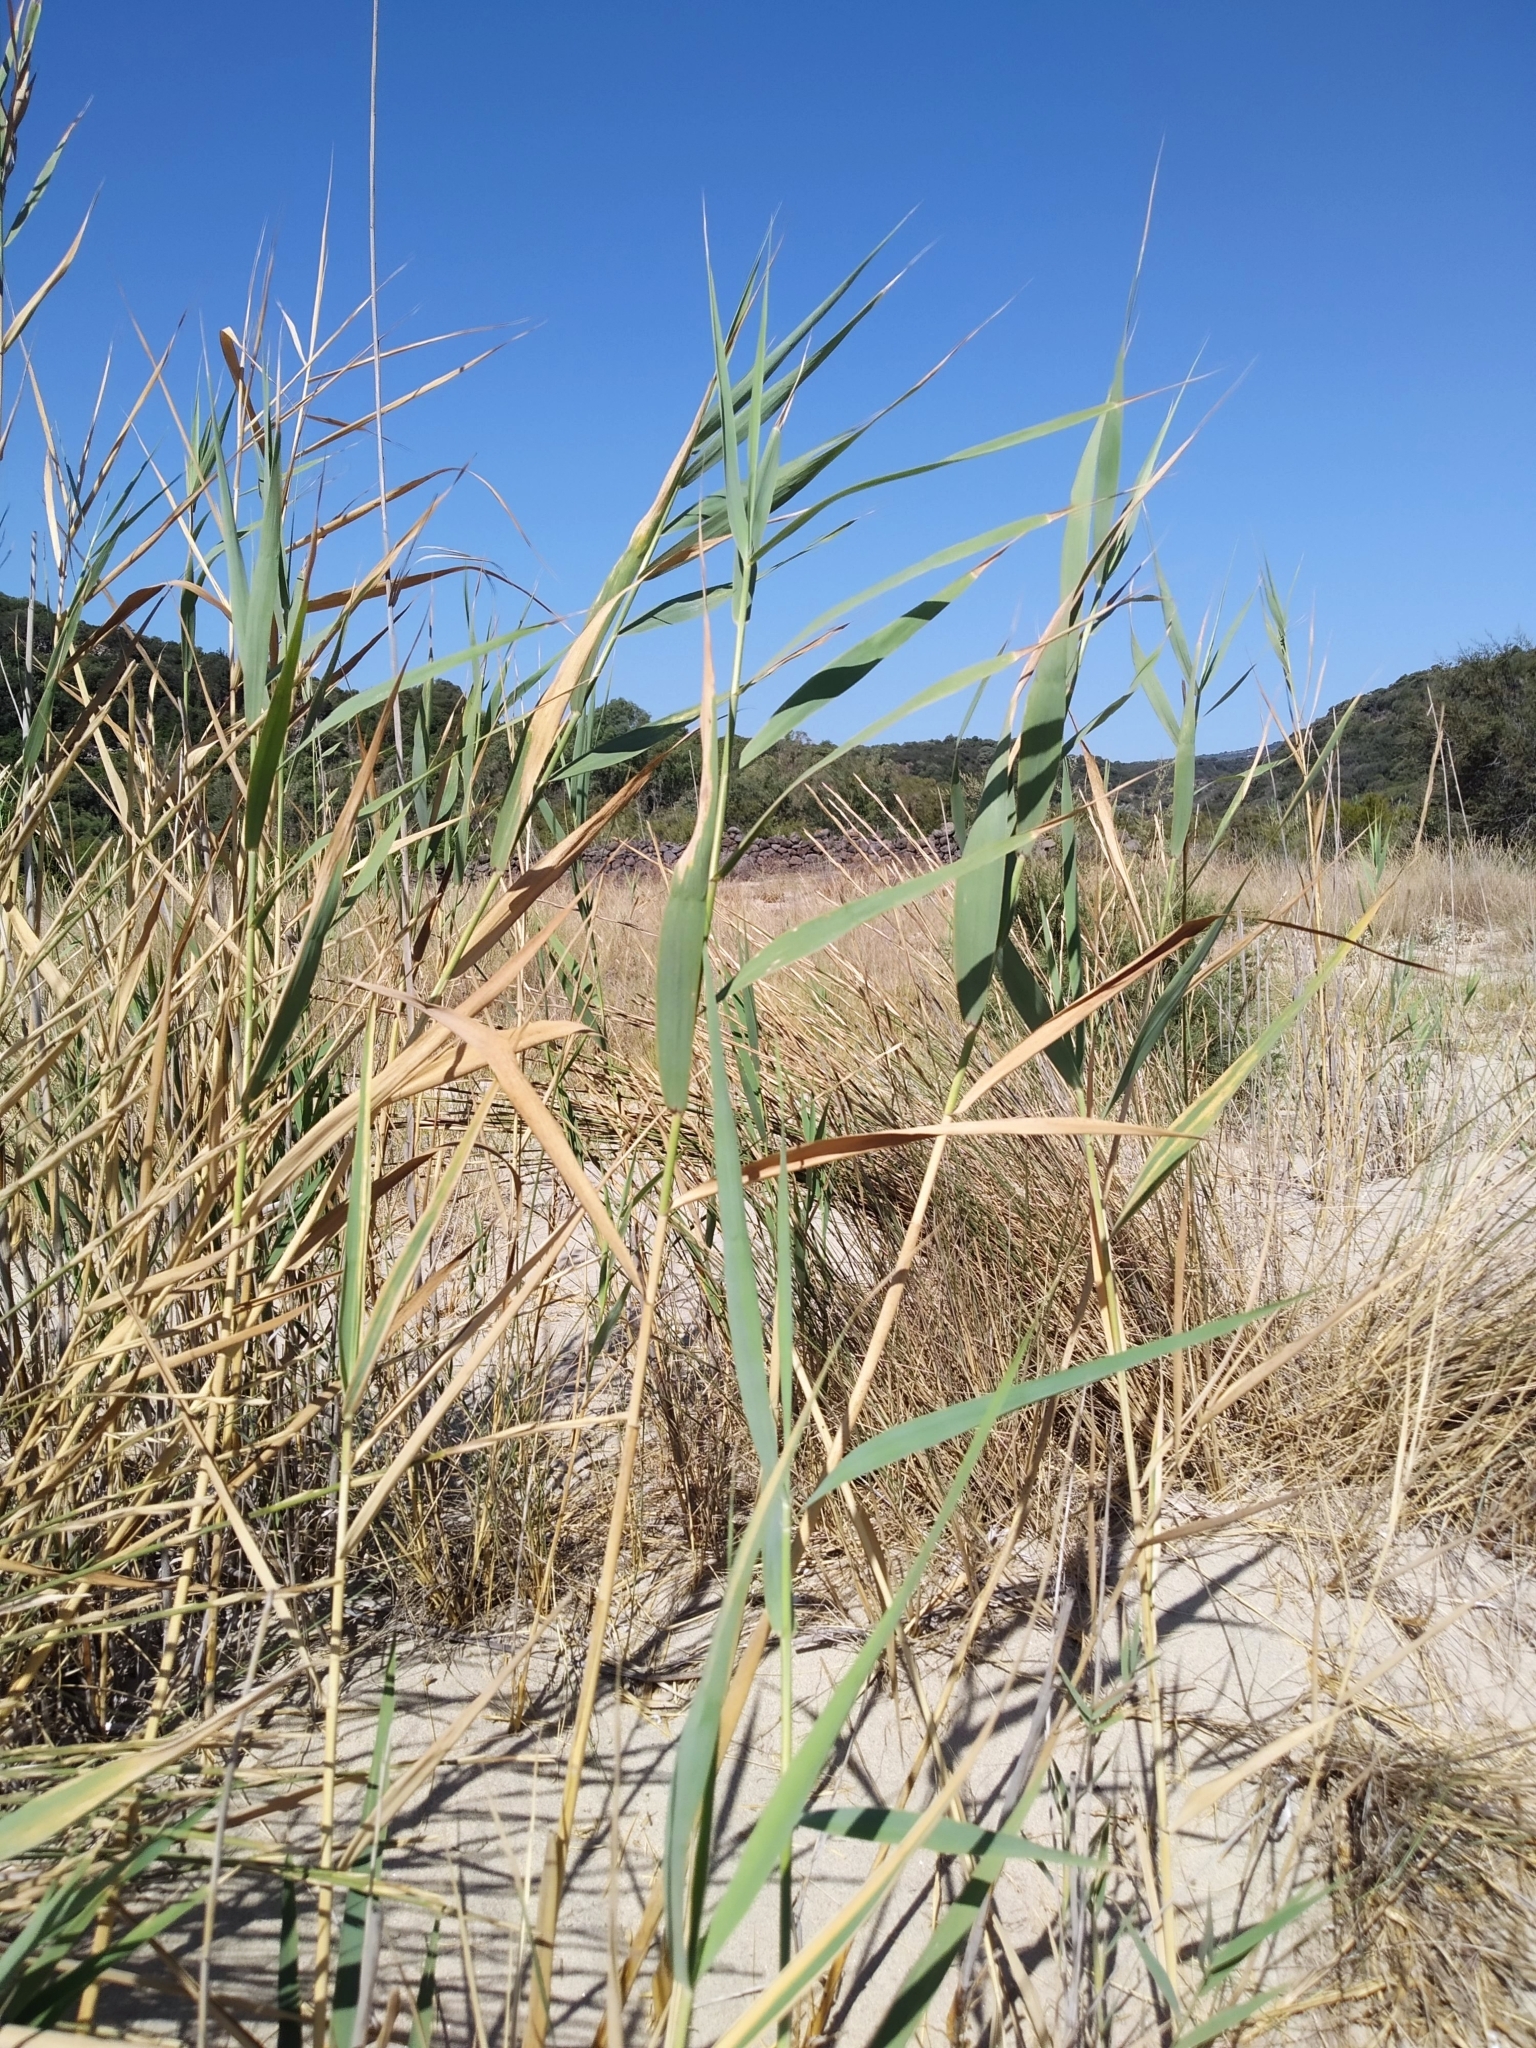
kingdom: Plantae
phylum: Tracheophyta
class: Liliopsida
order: Poales
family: Poaceae
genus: Phragmites
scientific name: Phragmites australis
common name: Common reed
